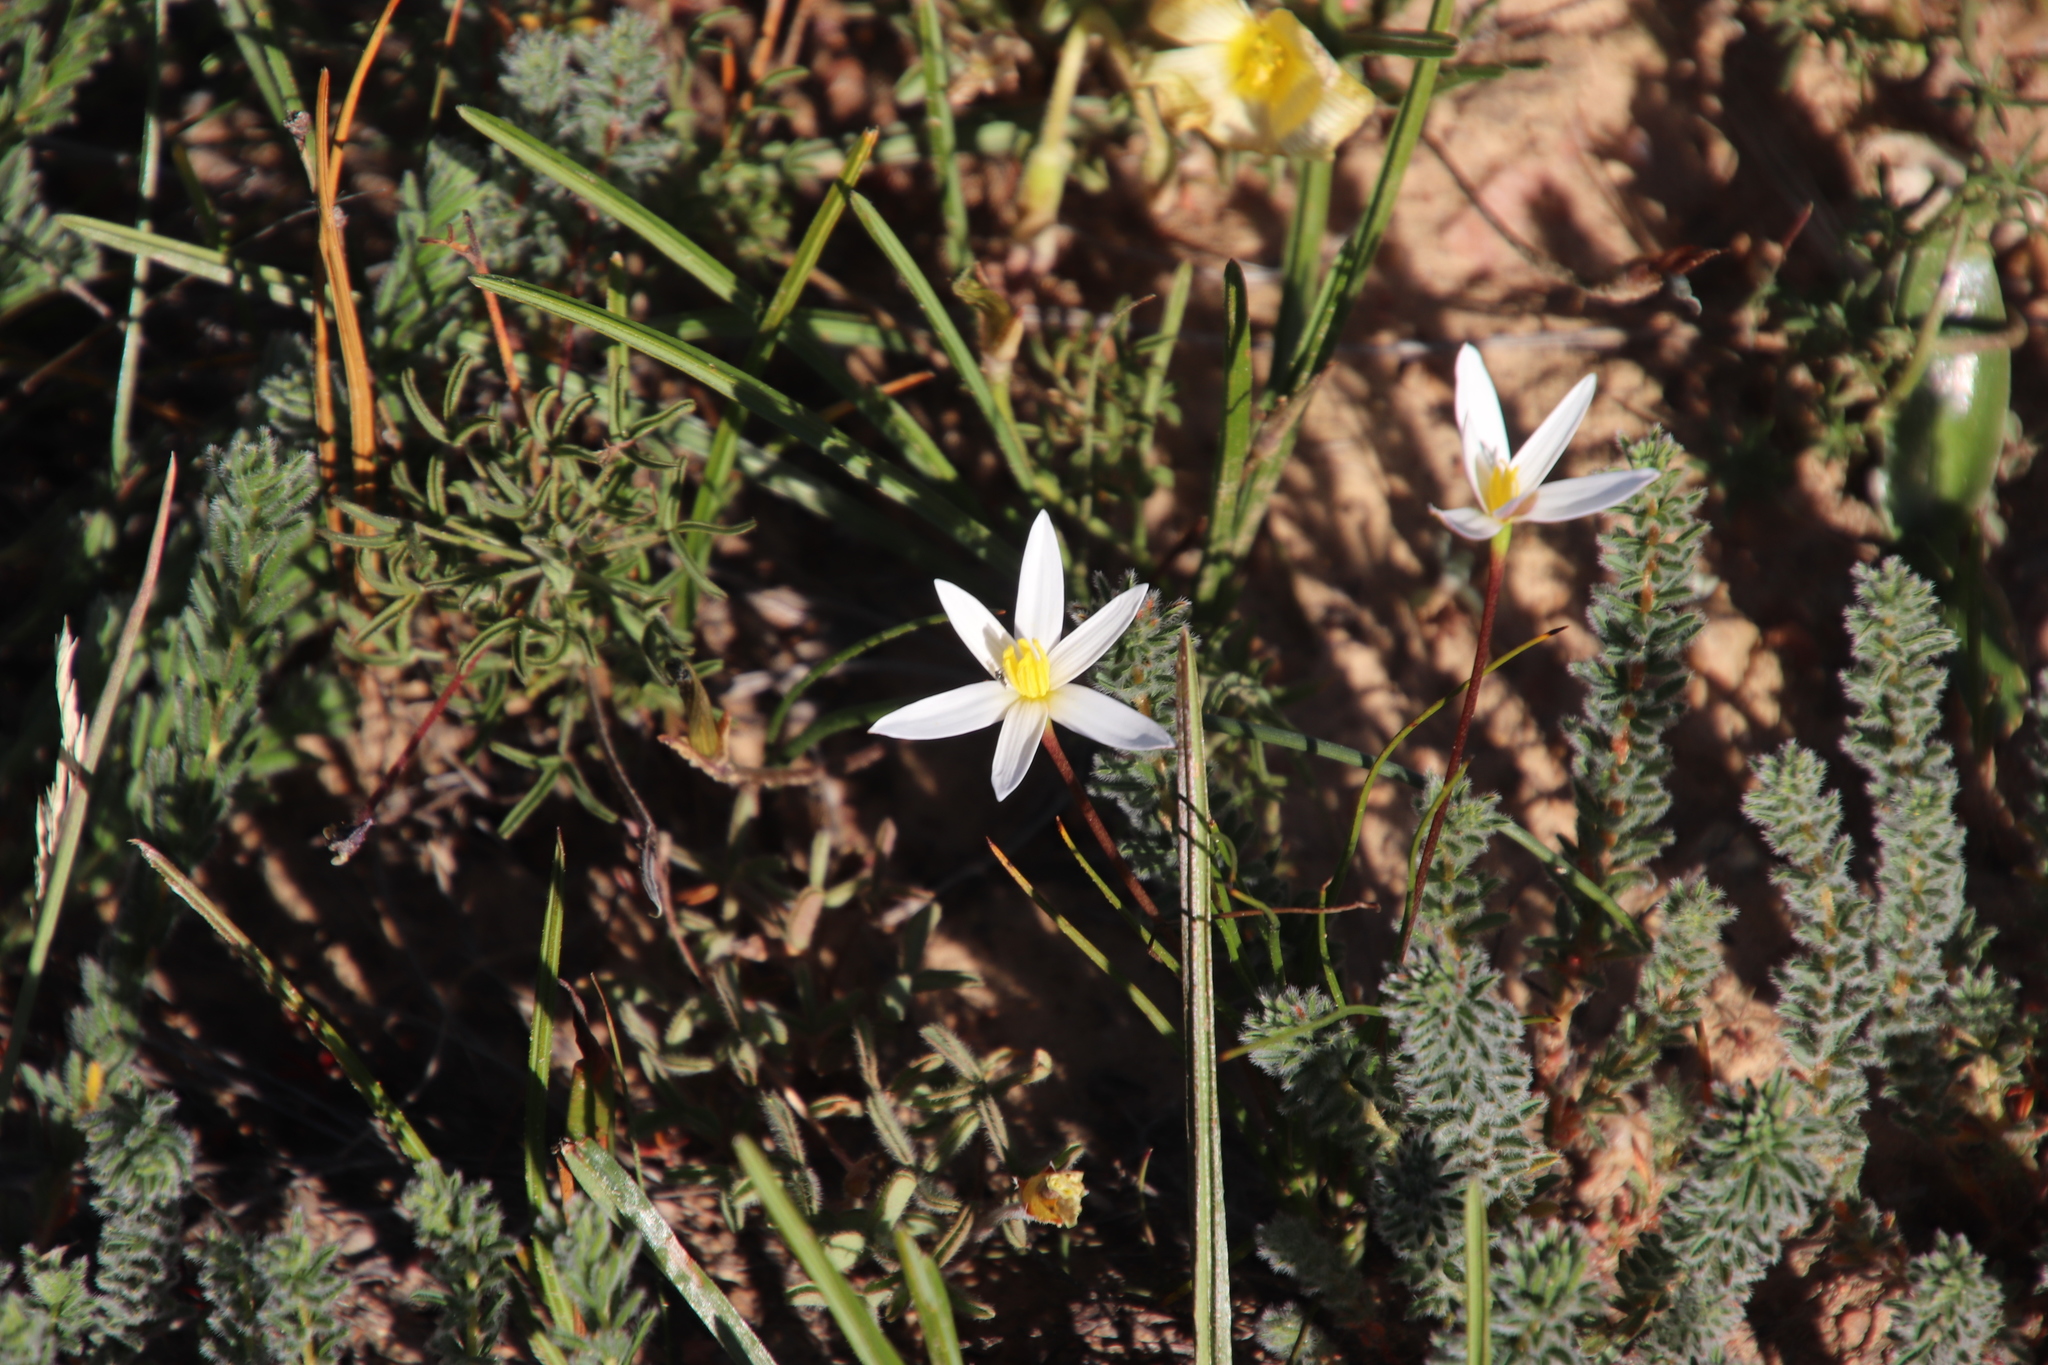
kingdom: Plantae
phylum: Tracheophyta
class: Liliopsida
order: Asparagales
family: Hypoxidaceae
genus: Pauridia
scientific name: Pauridia serrata
